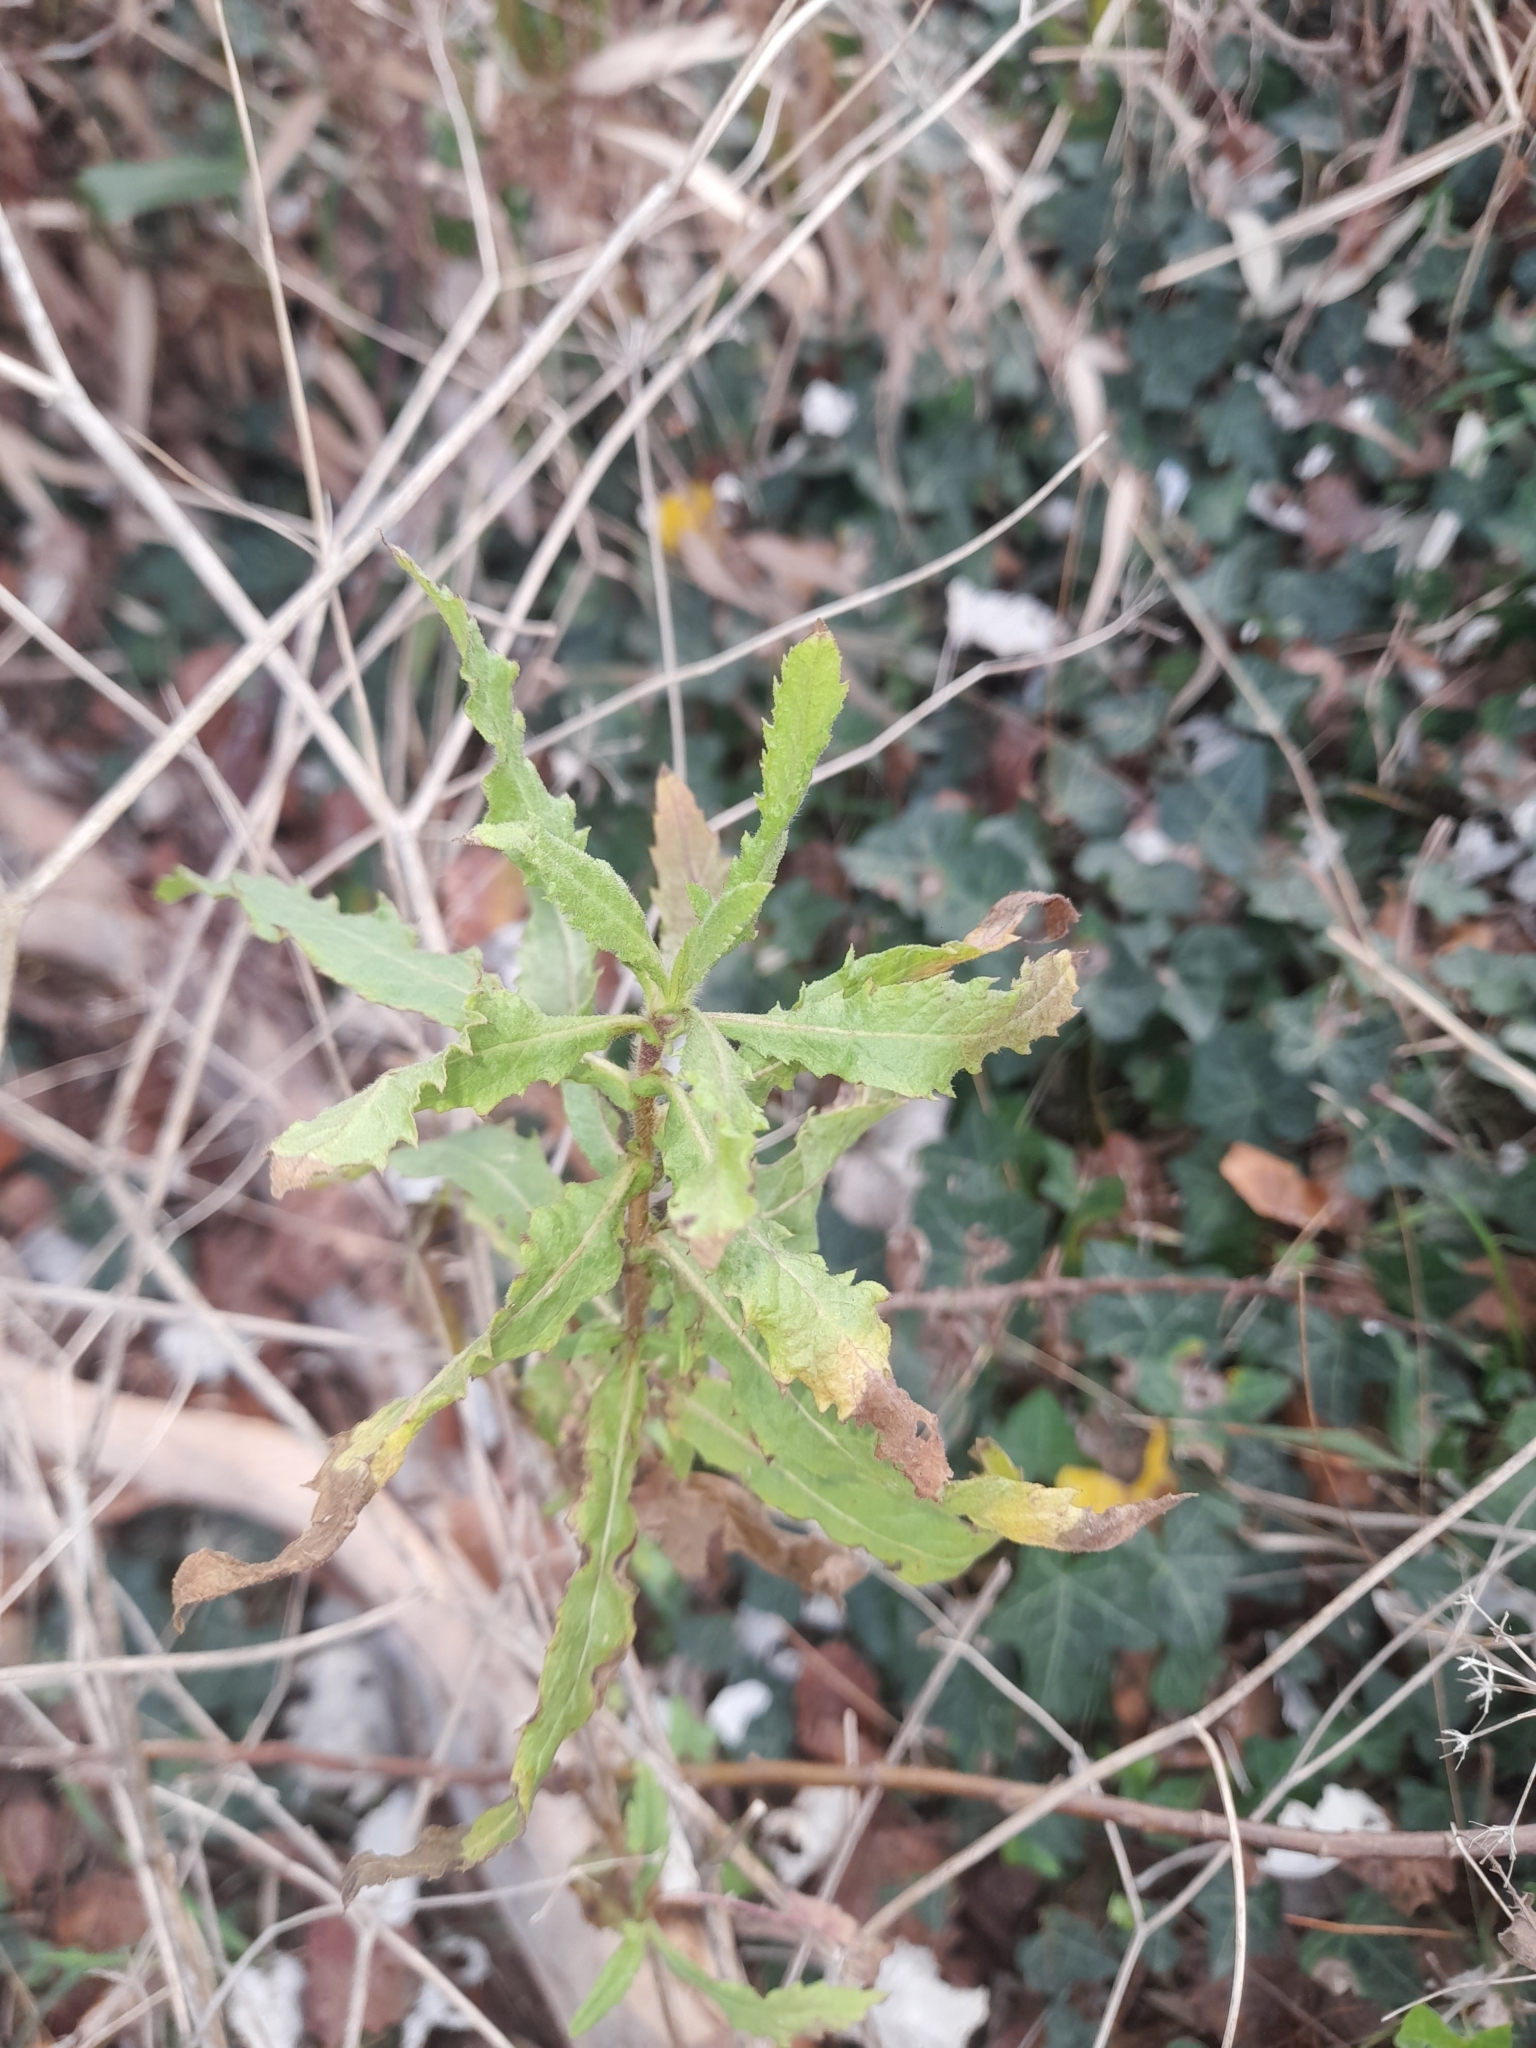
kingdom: Plantae
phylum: Tracheophyta
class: Magnoliopsida
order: Asterales
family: Asteraceae
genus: Dittrichia
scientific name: Dittrichia viscosa
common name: Woody fleabane
